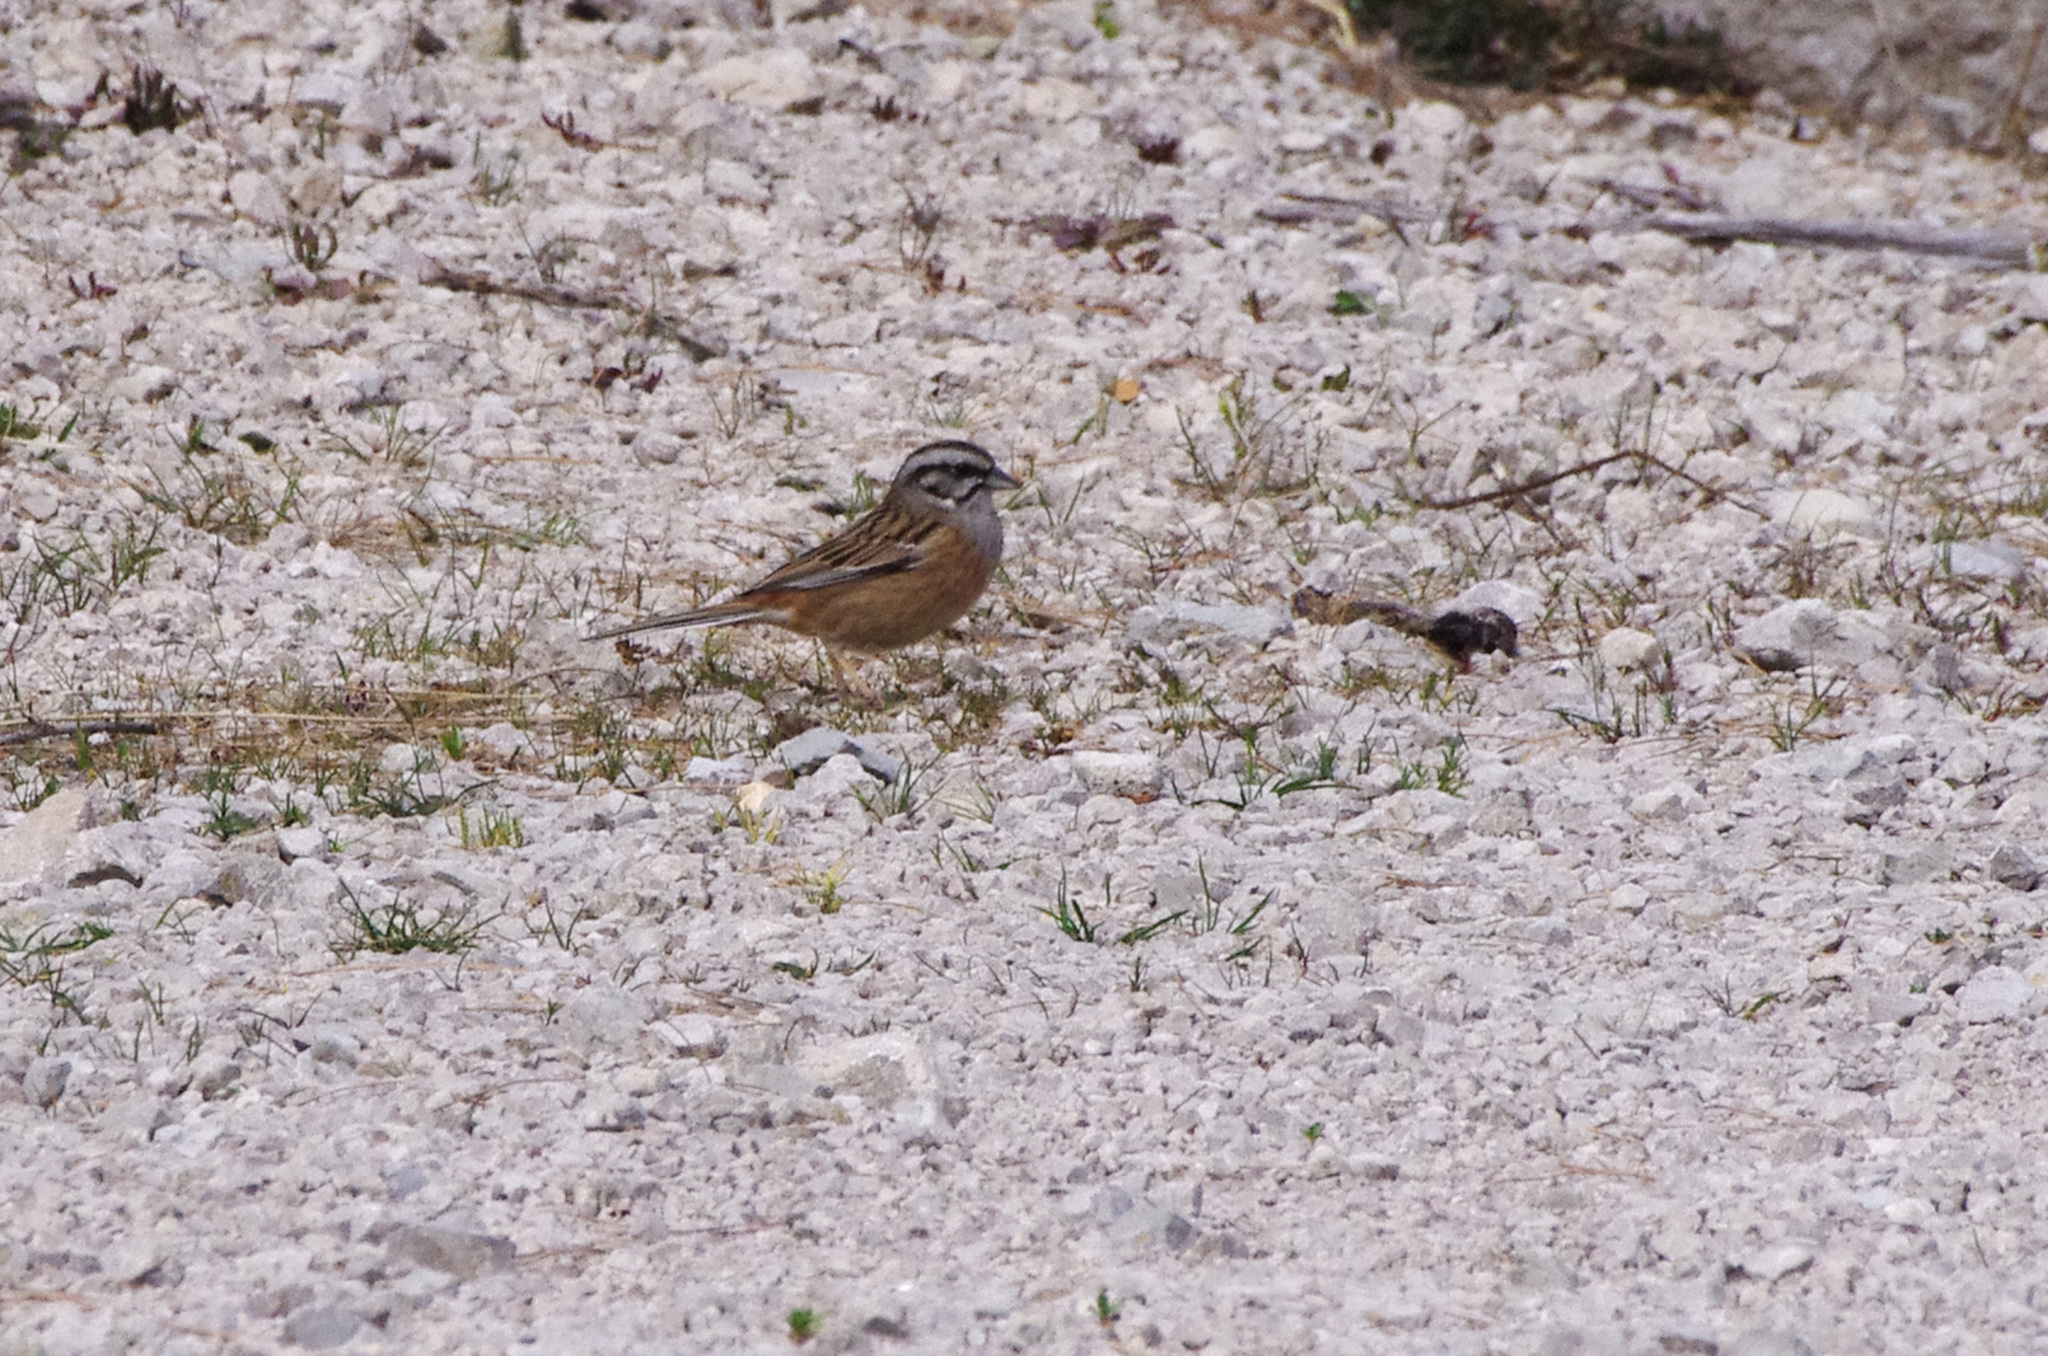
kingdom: Animalia
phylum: Chordata
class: Aves
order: Passeriformes
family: Emberizidae
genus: Emberiza
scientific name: Emberiza cia
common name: Rock bunting
